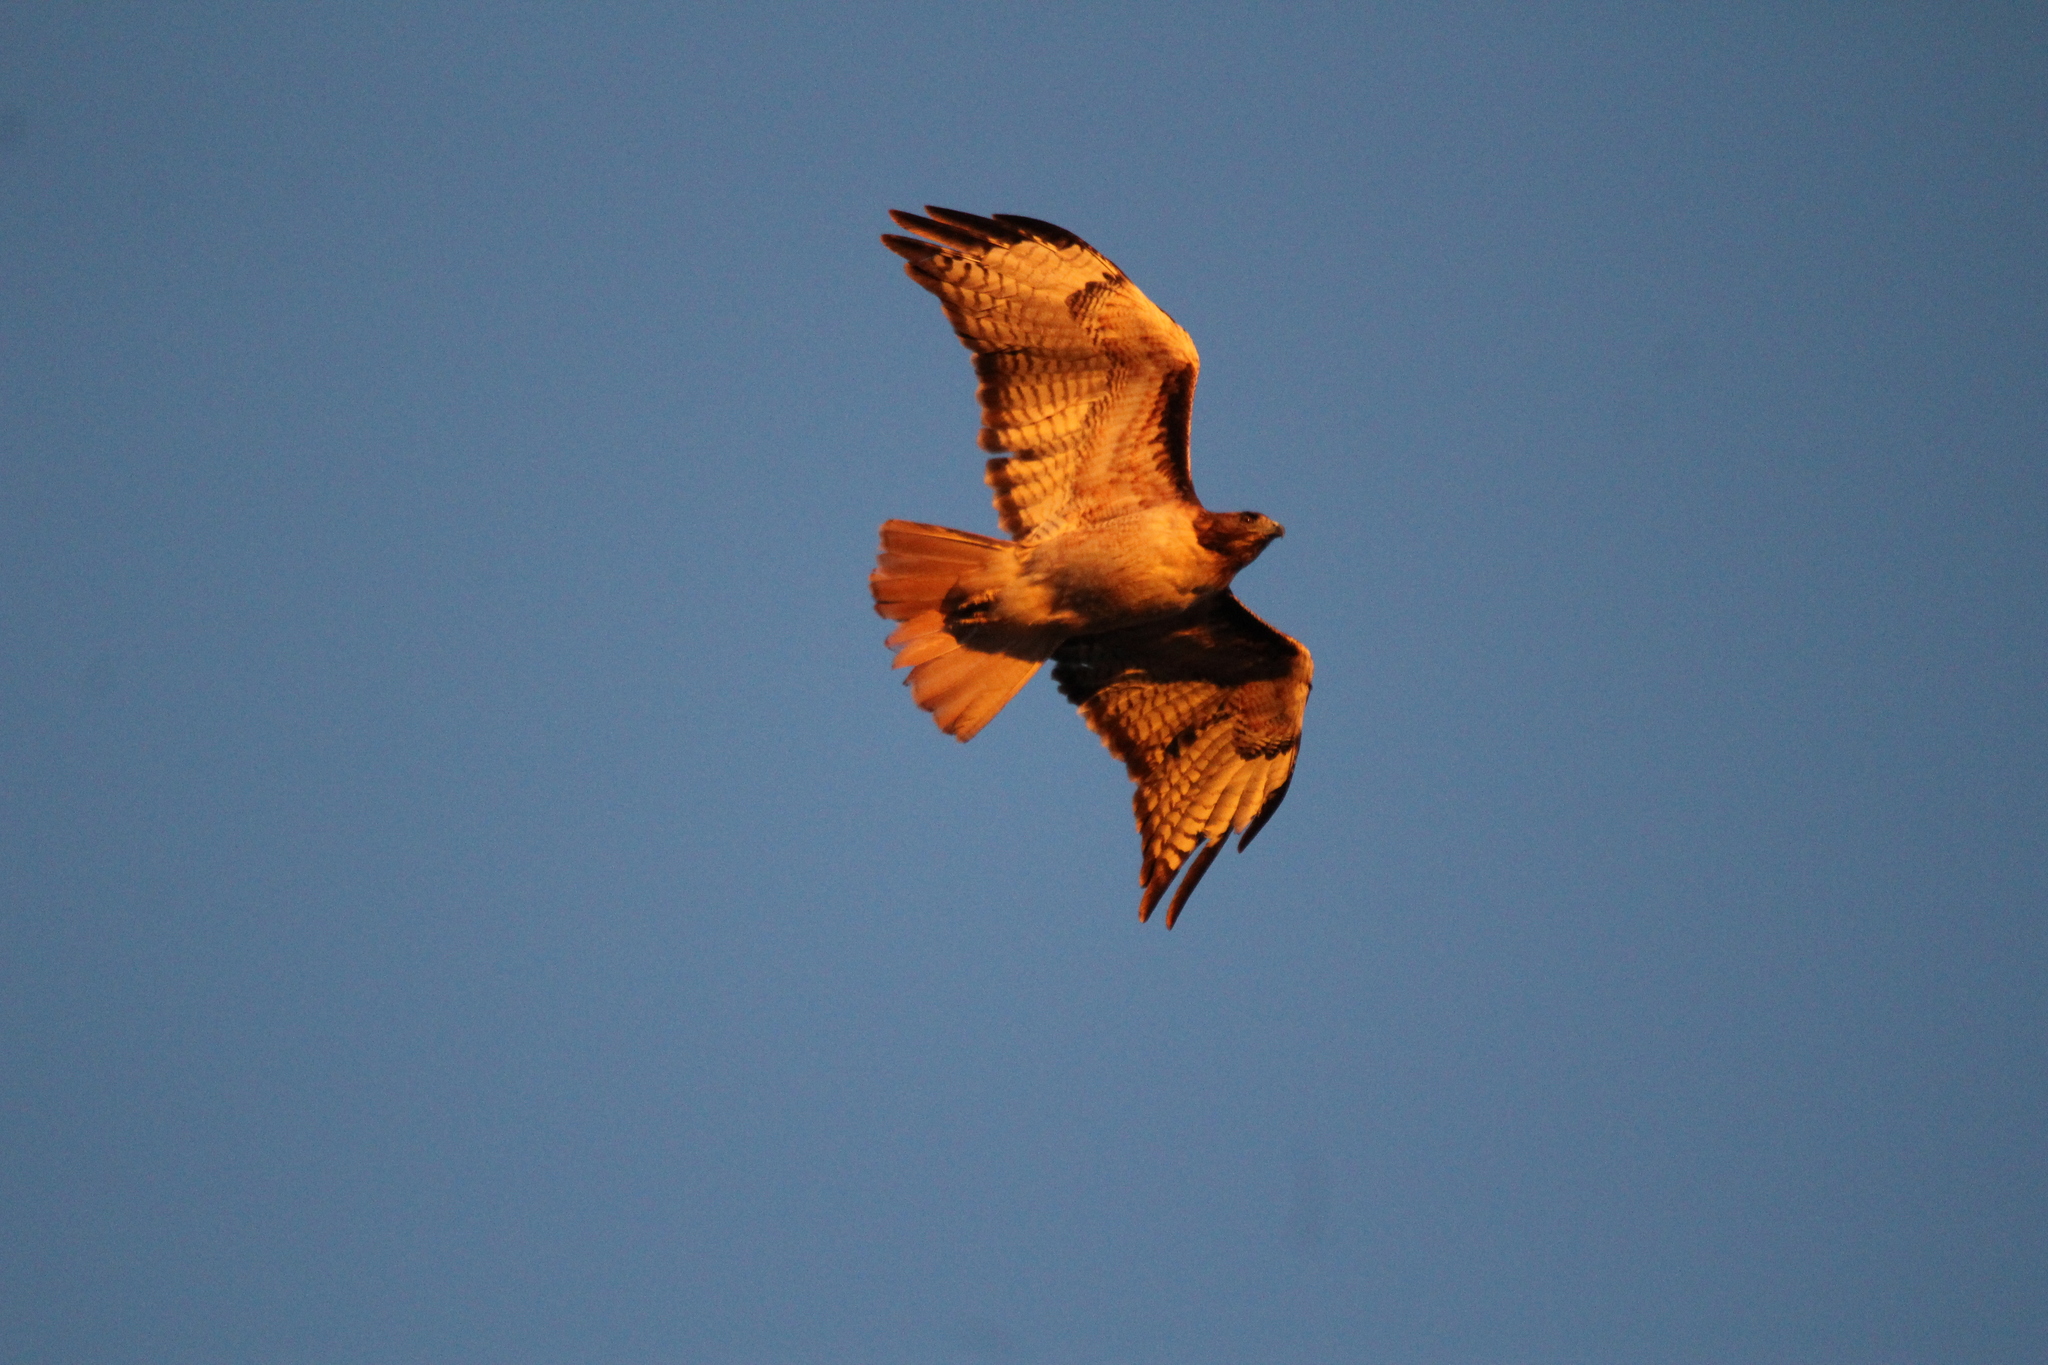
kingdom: Animalia
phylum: Chordata
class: Aves
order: Accipitriformes
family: Accipitridae
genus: Buteo
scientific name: Buteo jamaicensis
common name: Red-tailed hawk
